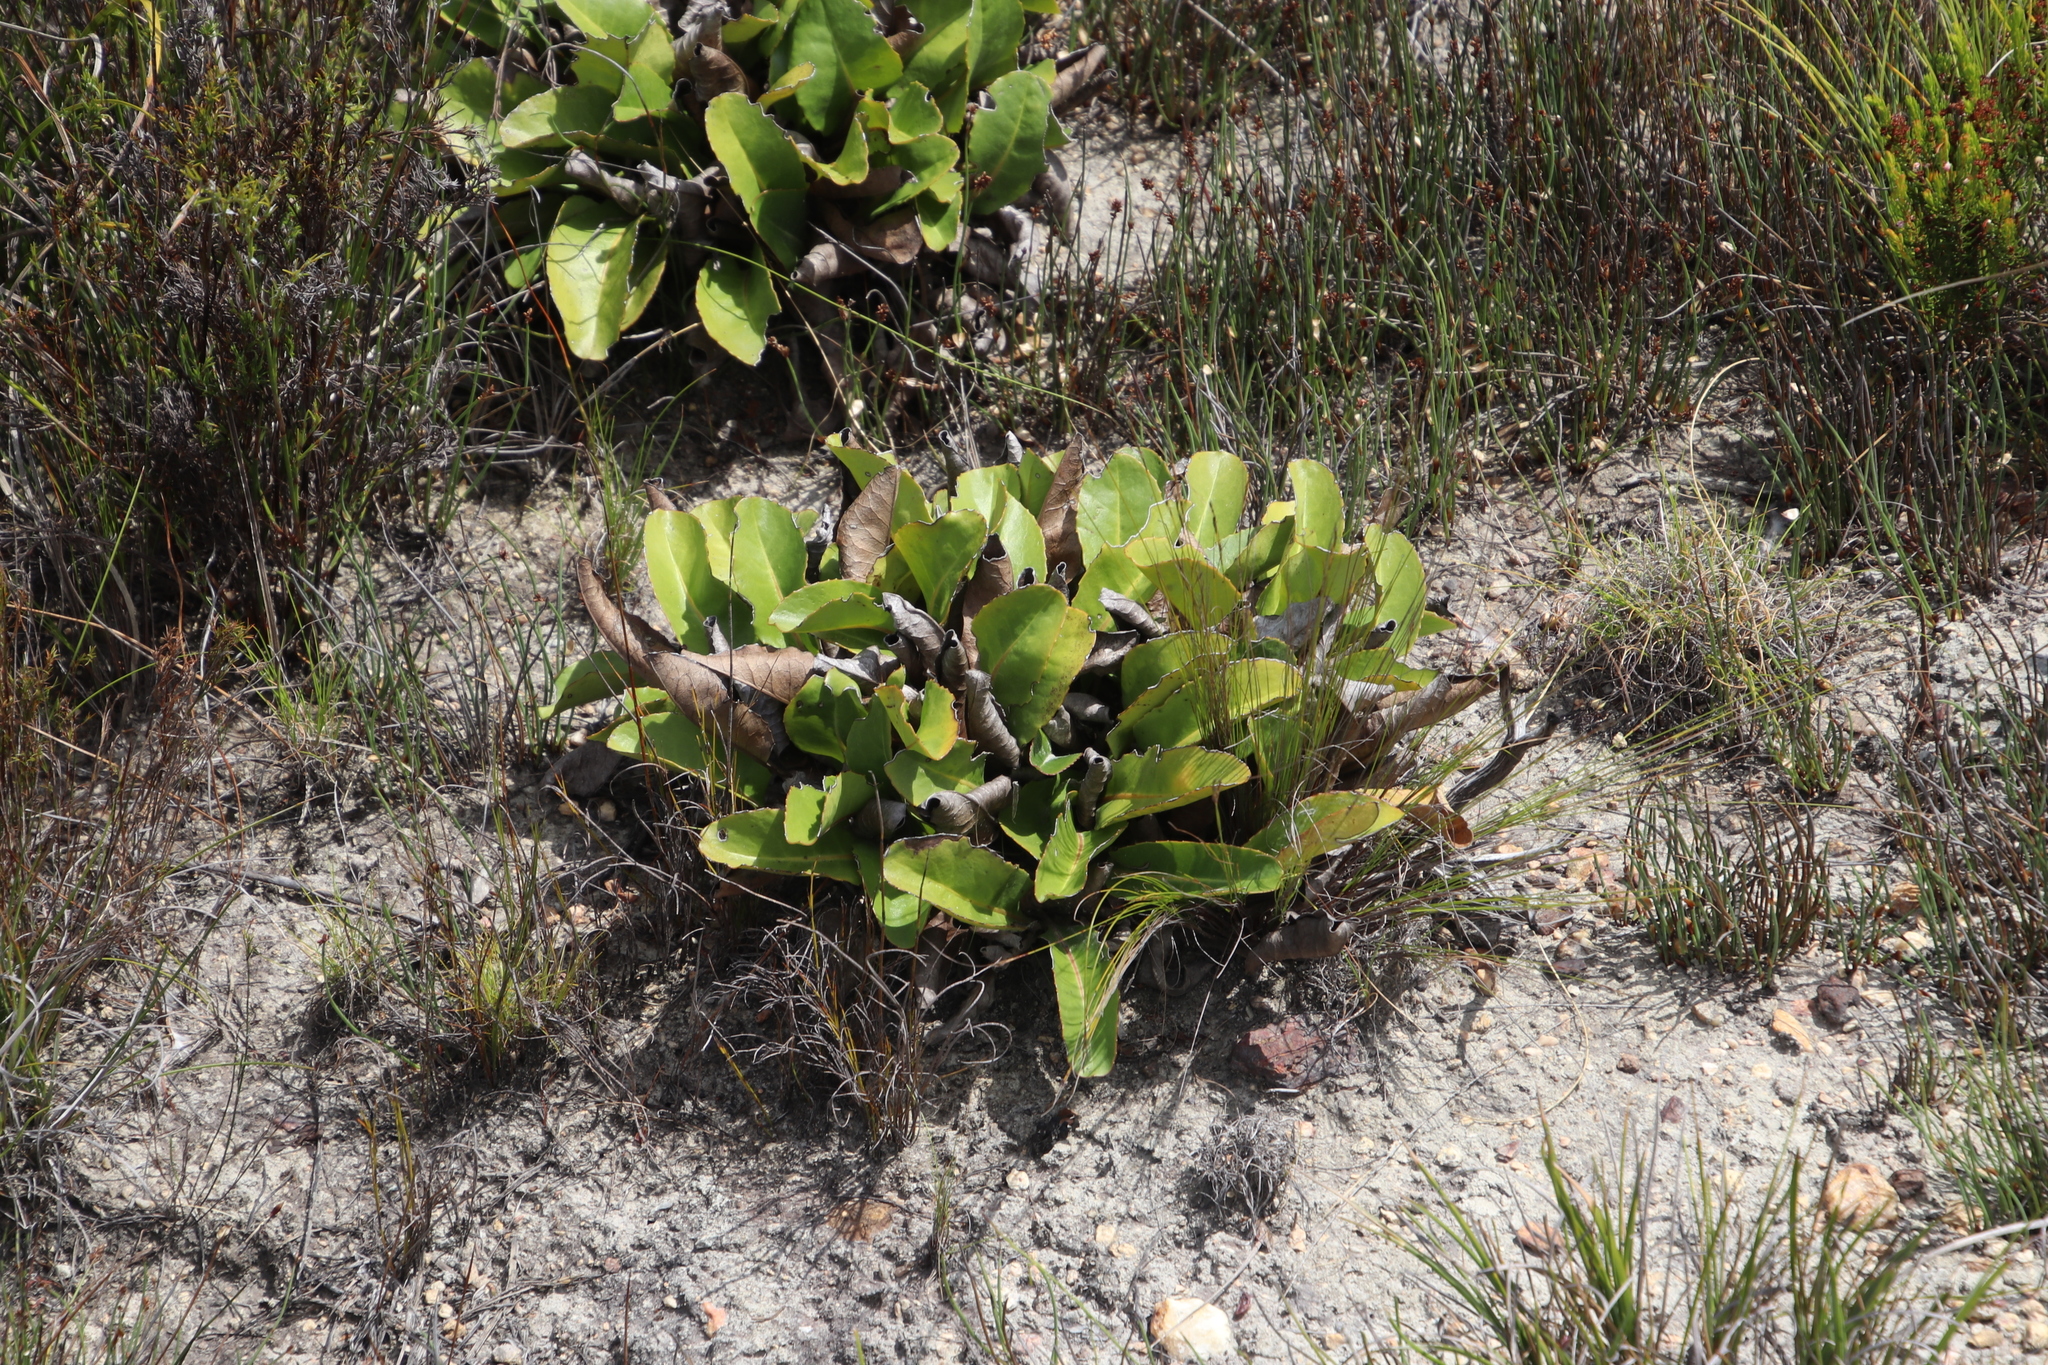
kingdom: Plantae
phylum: Tracheophyta
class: Magnoliopsida
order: Asterales
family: Asteraceae
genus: Gerbera
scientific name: Gerbera crocea
